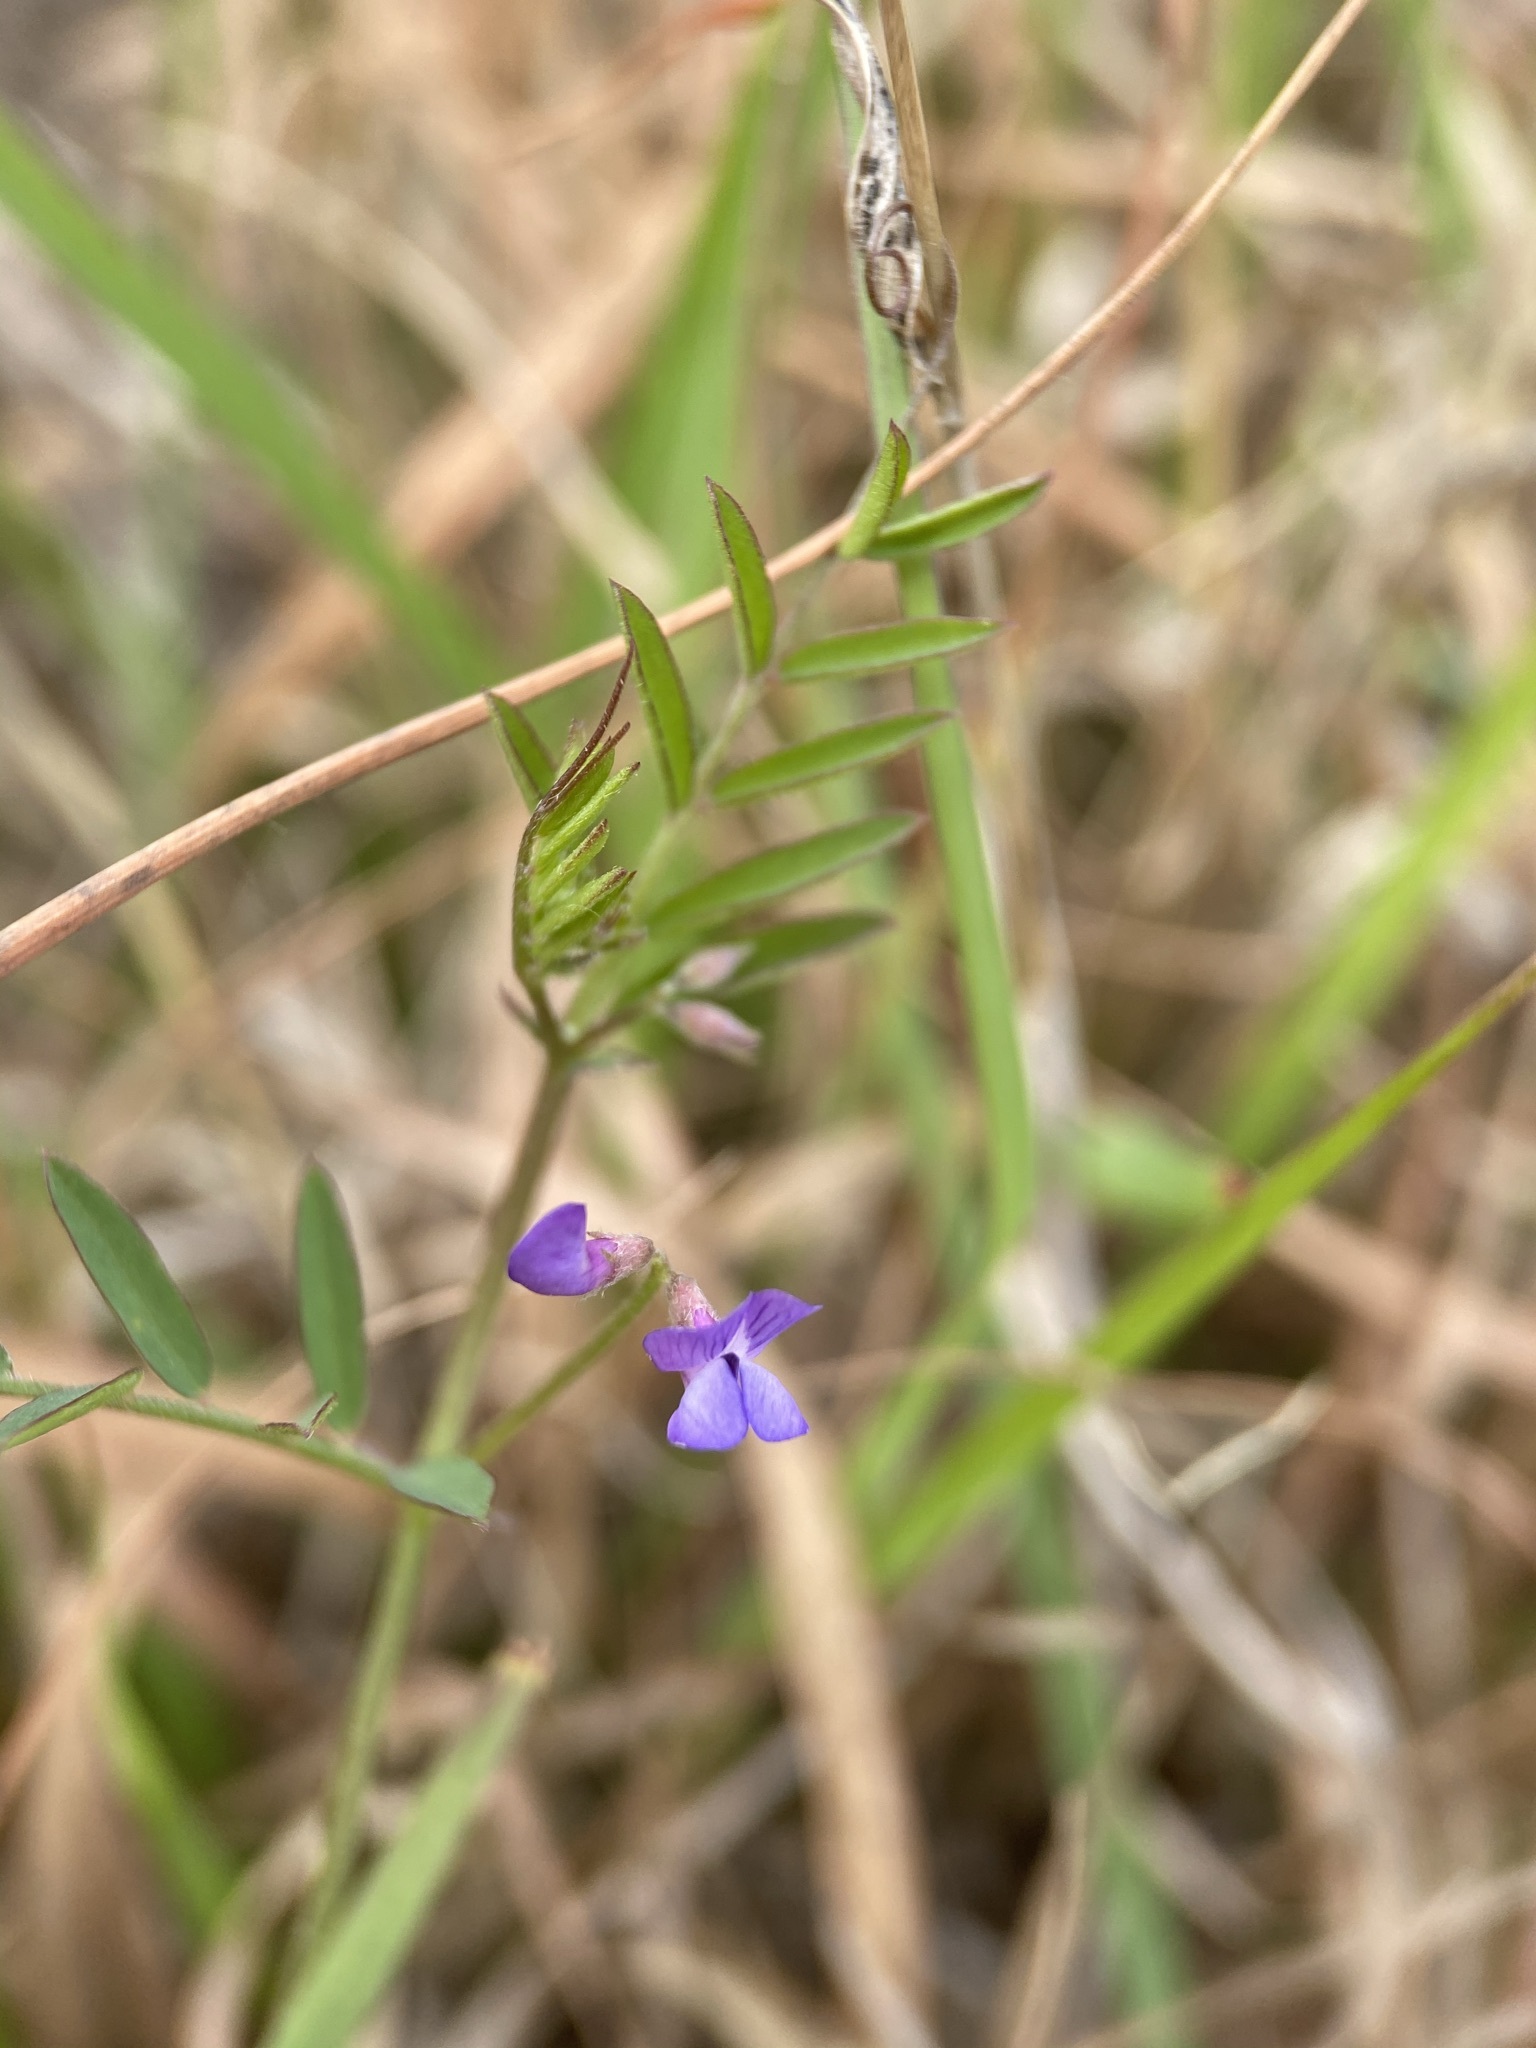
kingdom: Plantae
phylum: Tracheophyta
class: Magnoliopsida
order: Fabales
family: Fabaceae
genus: Vicia
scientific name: Vicia ludoviciana
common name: Louisiana vetch
